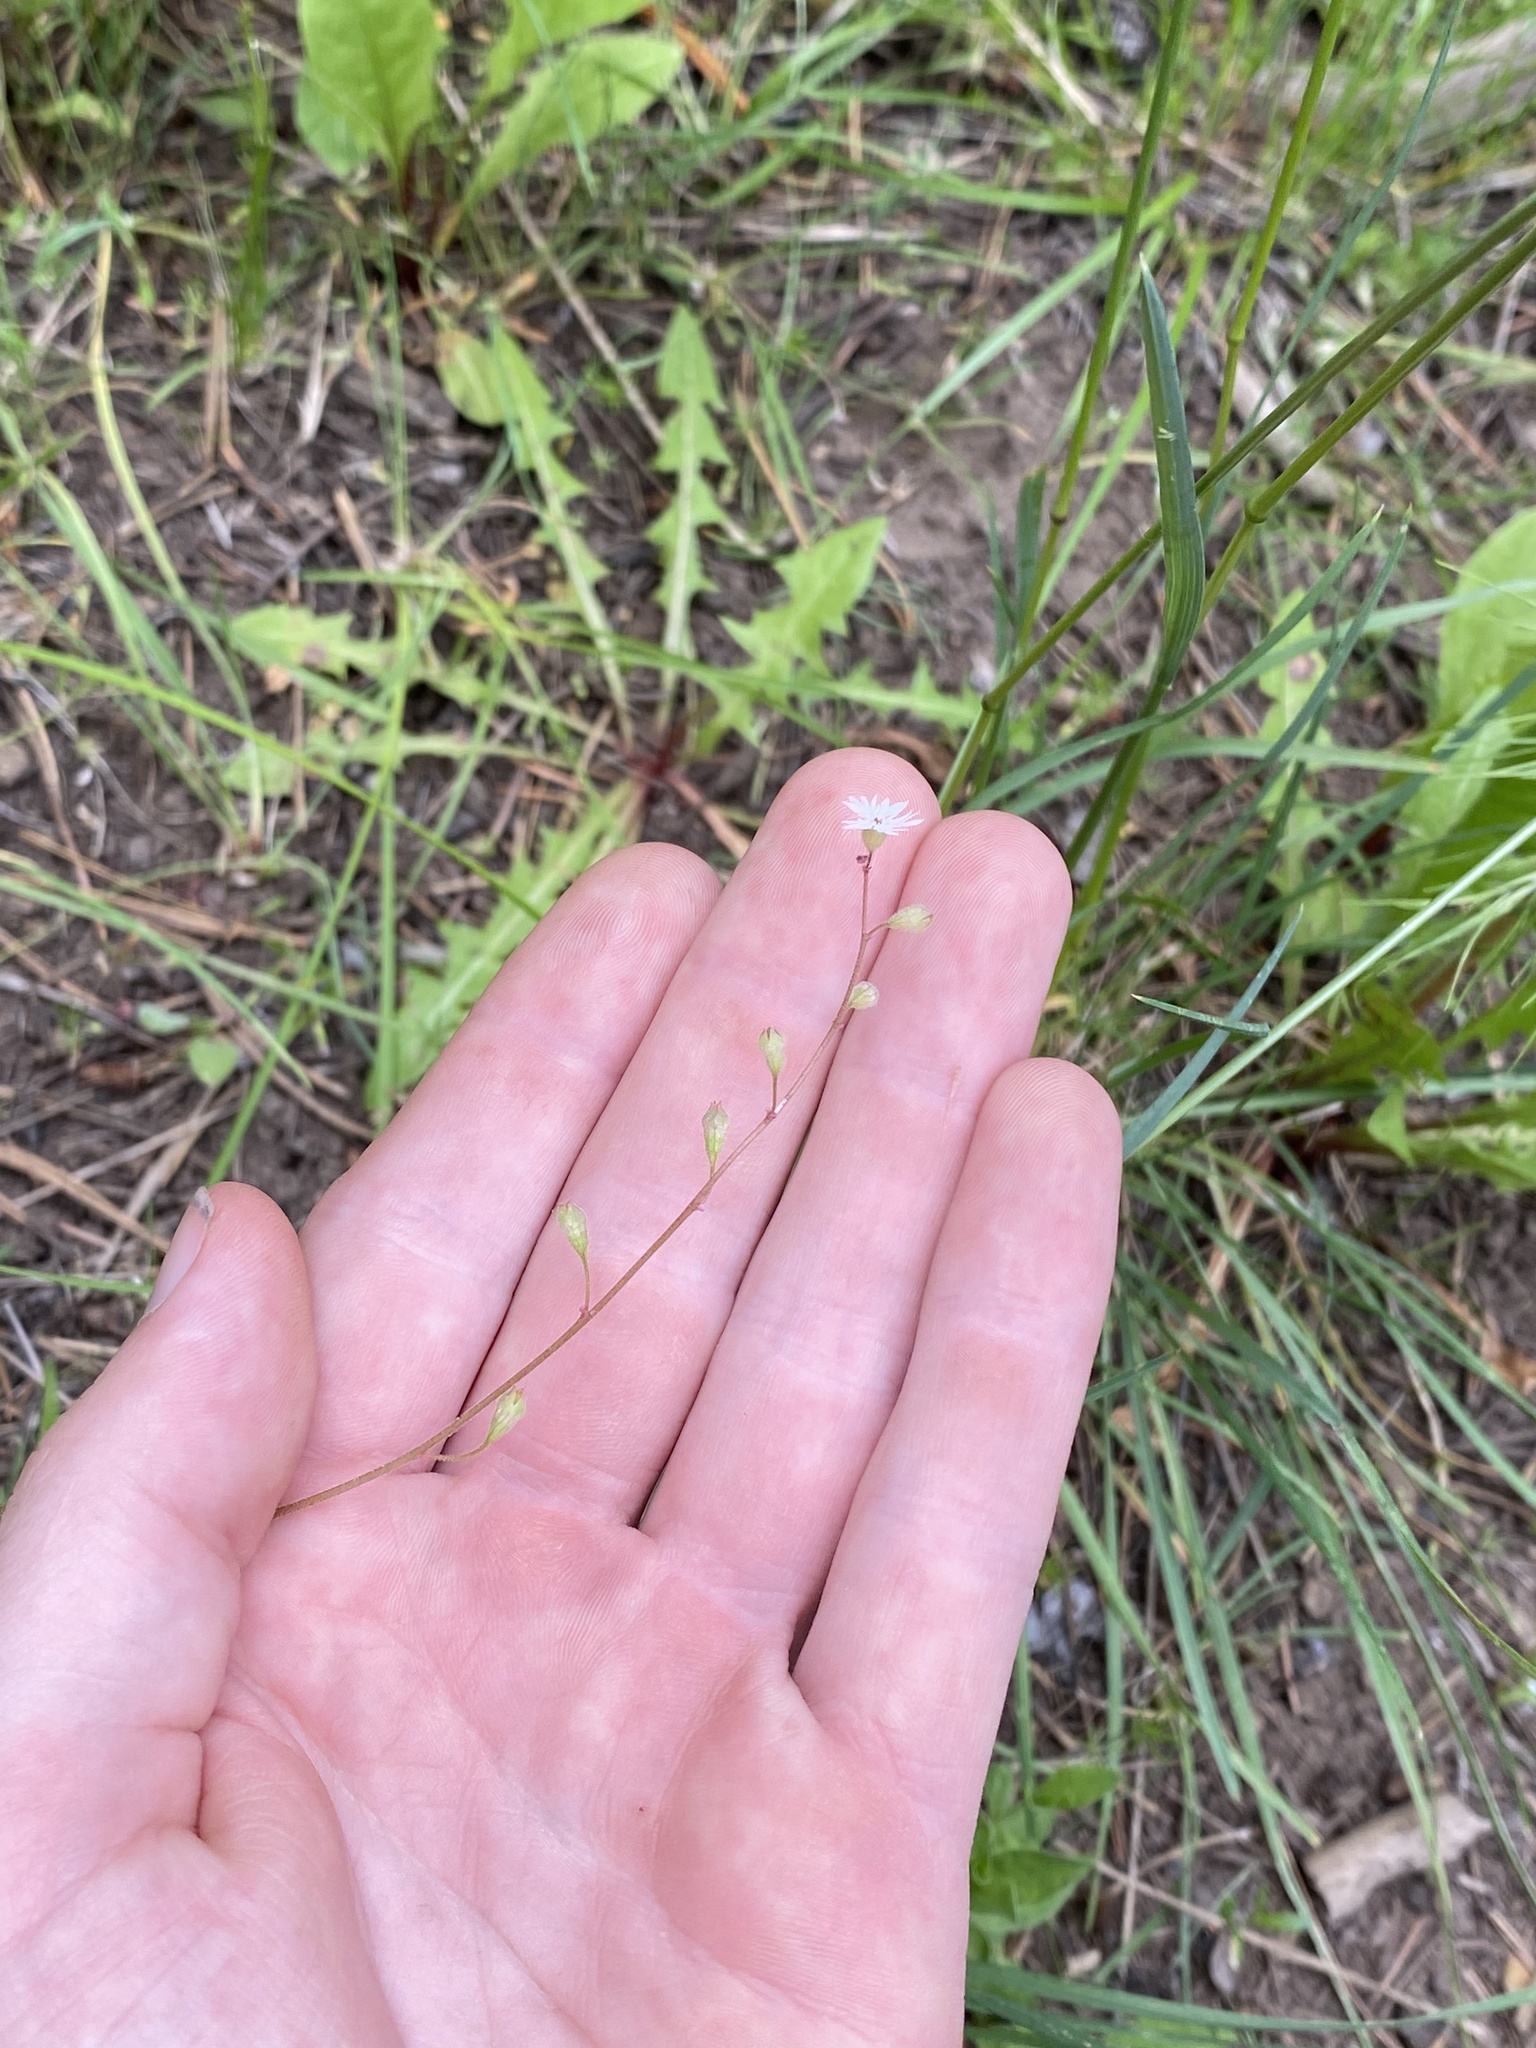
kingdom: Plantae
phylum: Tracheophyta
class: Magnoliopsida
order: Saxifragales
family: Saxifragaceae
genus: Lithophragma
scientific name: Lithophragma tenella
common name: Slender fringe-cup
